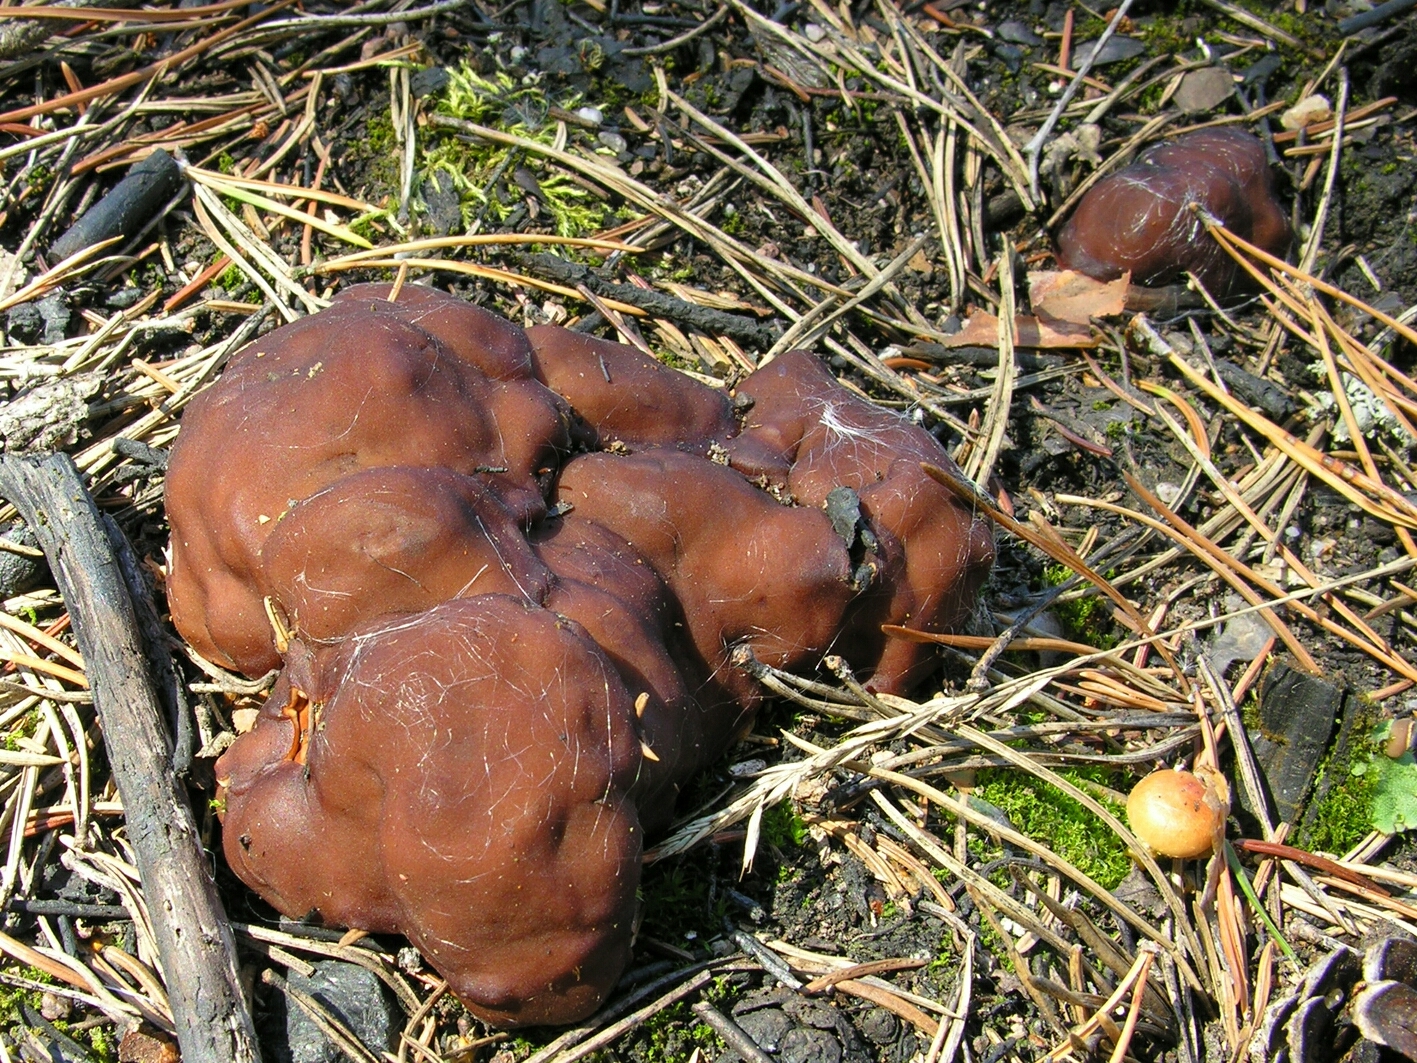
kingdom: Fungi
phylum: Ascomycota
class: Pezizomycetes
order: Pezizales
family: Rhizinaceae
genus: Rhizina
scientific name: Rhizina undulata
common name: Pine firefungus
